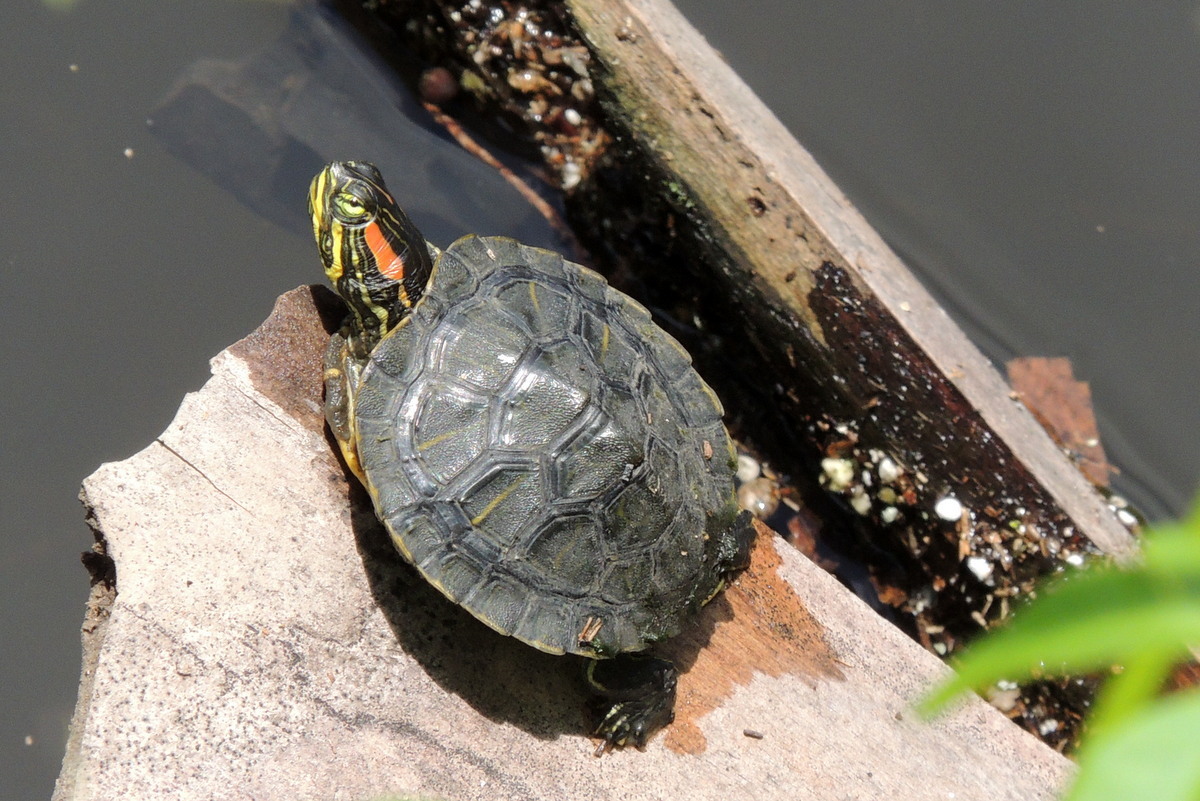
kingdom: Animalia
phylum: Chordata
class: Testudines
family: Emydidae
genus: Trachemys
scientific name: Trachemys scripta
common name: Slider
